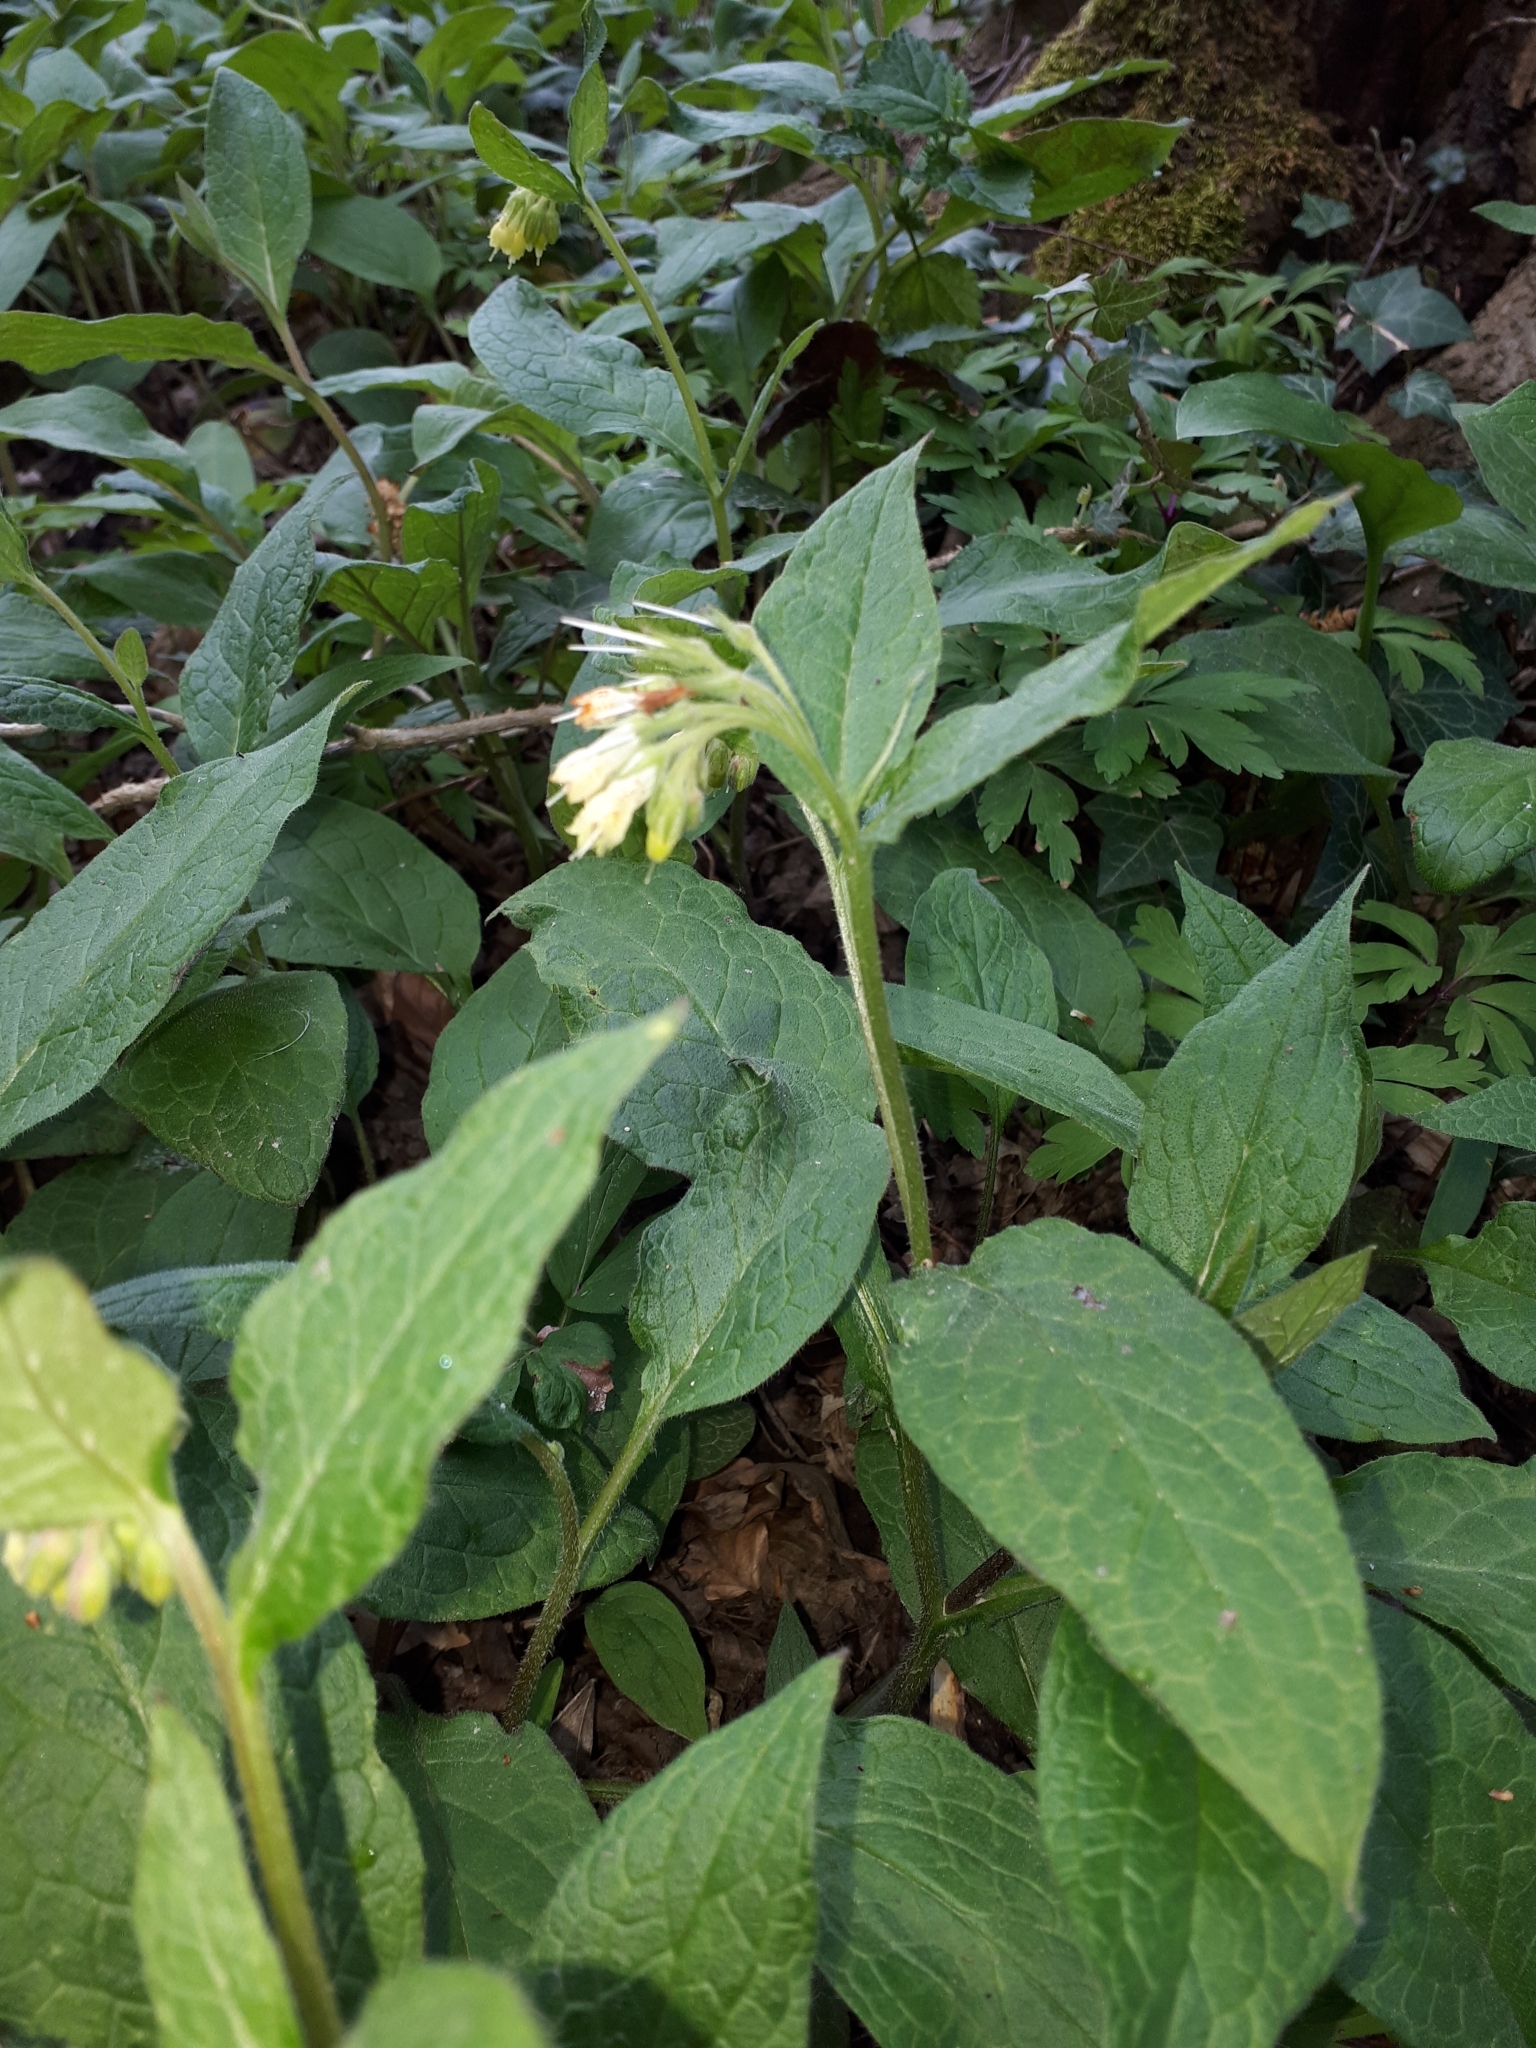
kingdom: Plantae
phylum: Tracheophyta
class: Magnoliopsida
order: Boraginales
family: Boraginaceae
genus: Symphytum
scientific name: Symphytum bulbosum
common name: Bulbous comfrey
